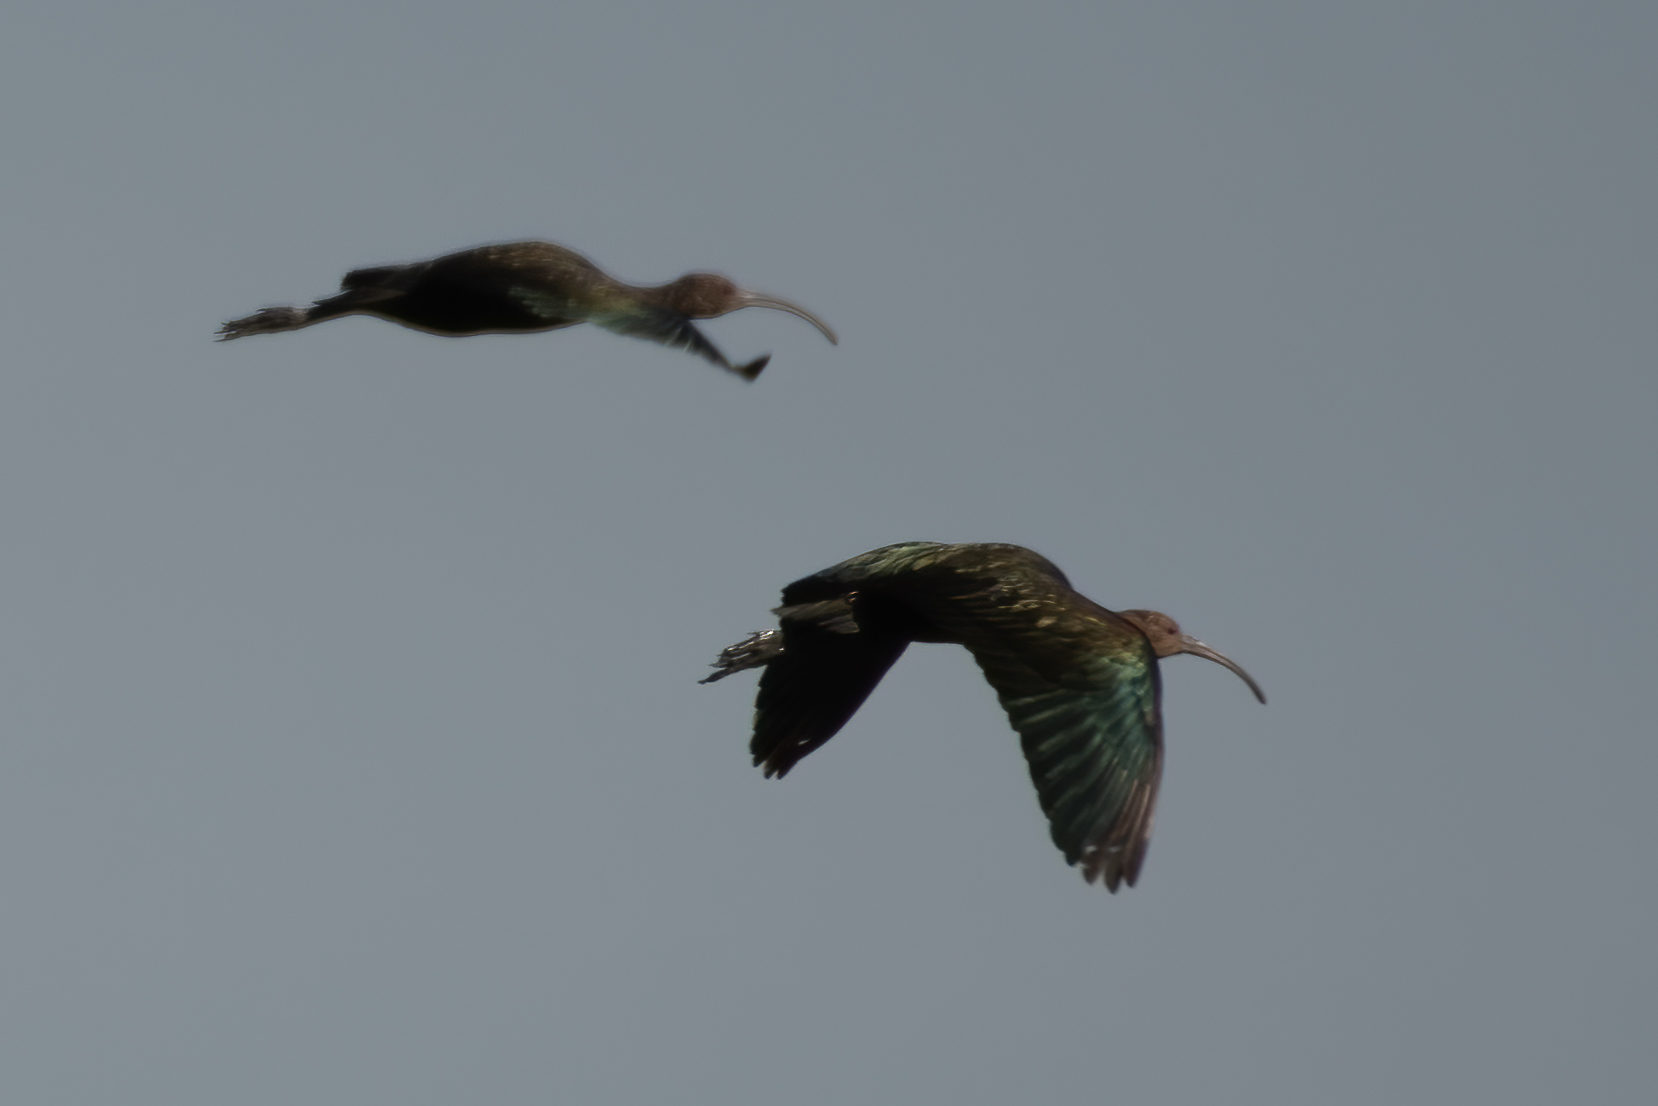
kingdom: Animalia
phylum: Chordata
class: Aves
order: Pelecaniformes
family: Threskiornithidae
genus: Plegadis
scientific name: Plegadis chihi
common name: White-faced ibis
